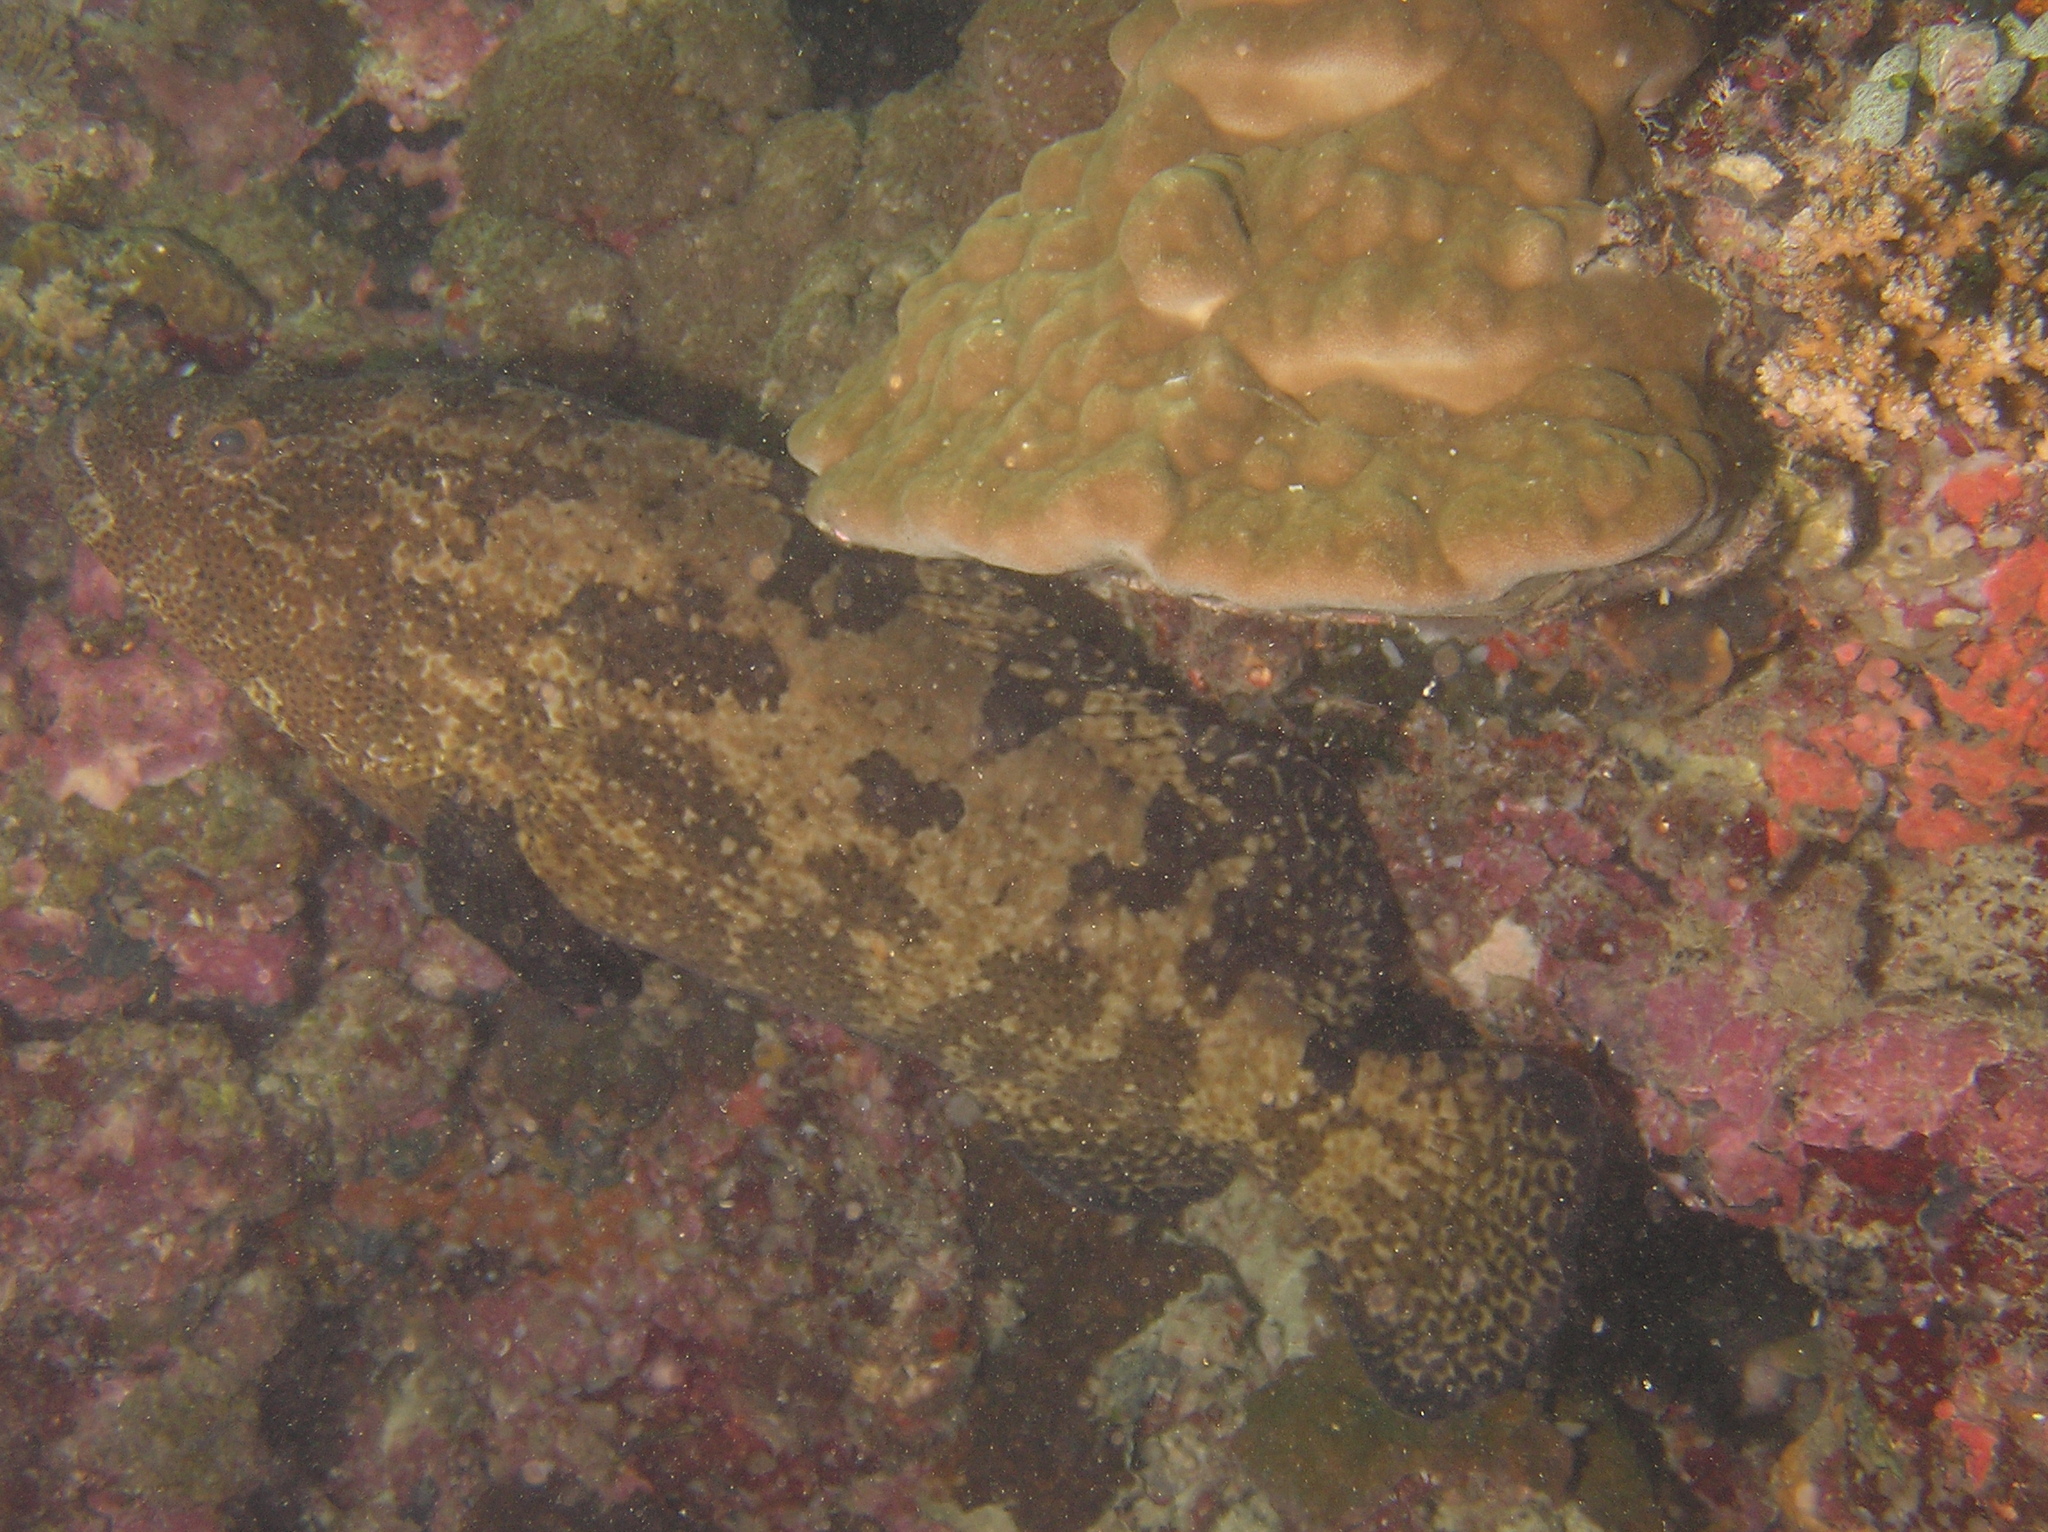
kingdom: Animalia
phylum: Chordata
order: Perciformes
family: Serranidae
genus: Epinephelus
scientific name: Epinephelus fuscoguttatus
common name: Brown-marbled grouper
